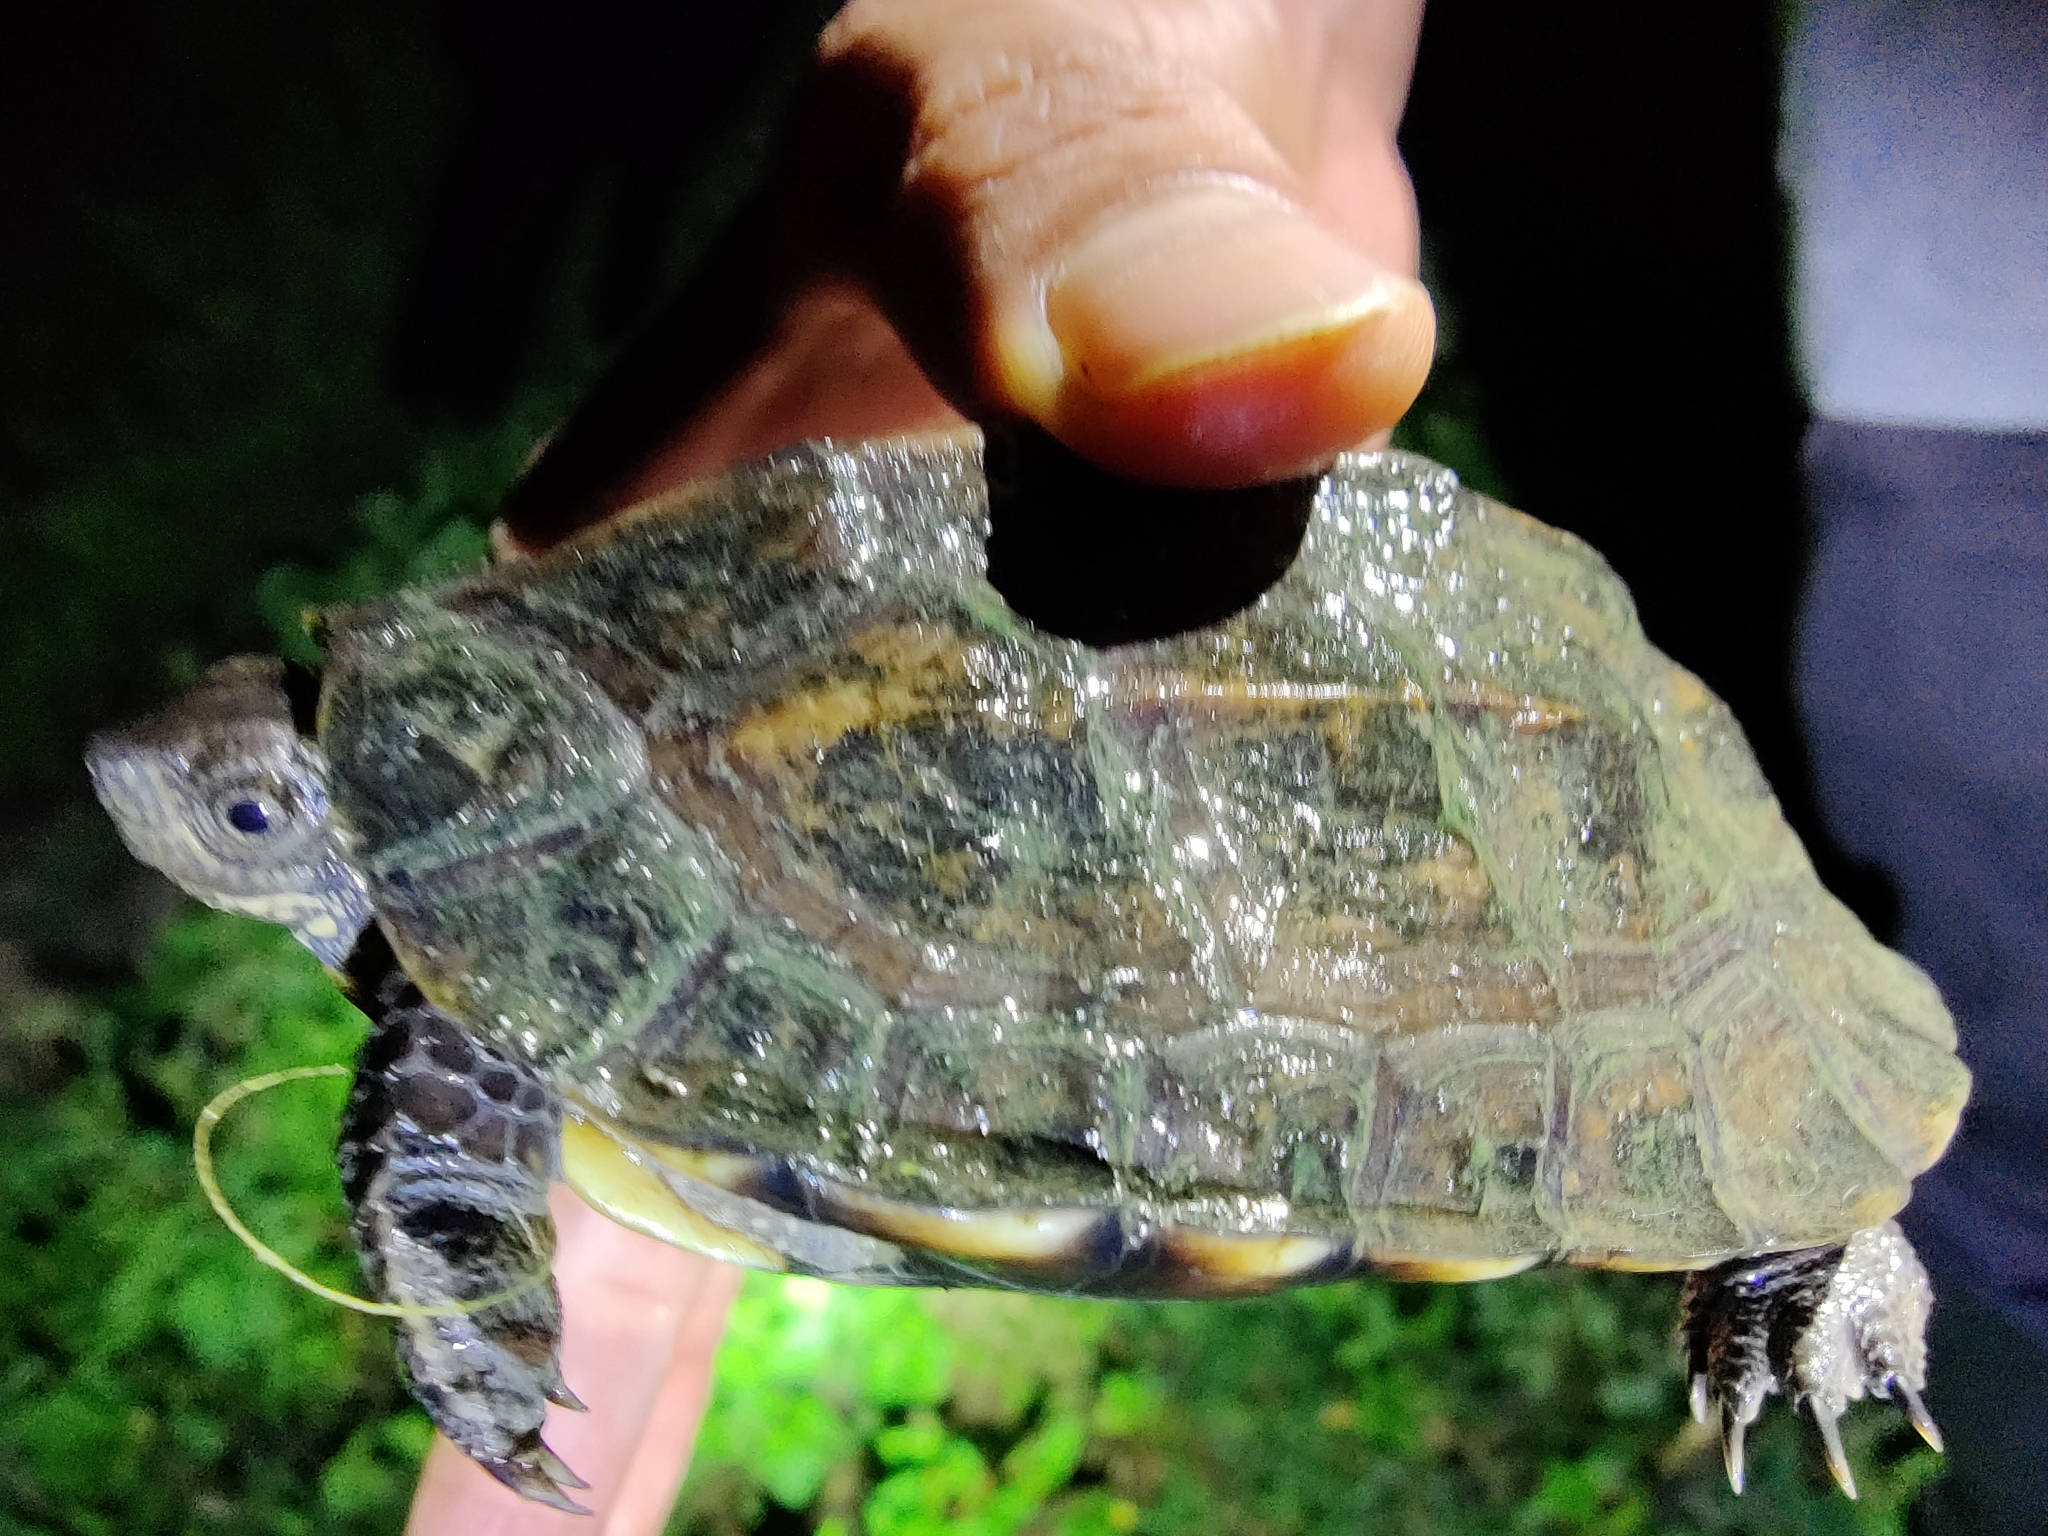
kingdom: Animalia
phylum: Chordata
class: Testudines
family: Geoemydidae
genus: Melanochelys
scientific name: Melanochelys trijuga
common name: Indian black turtle
